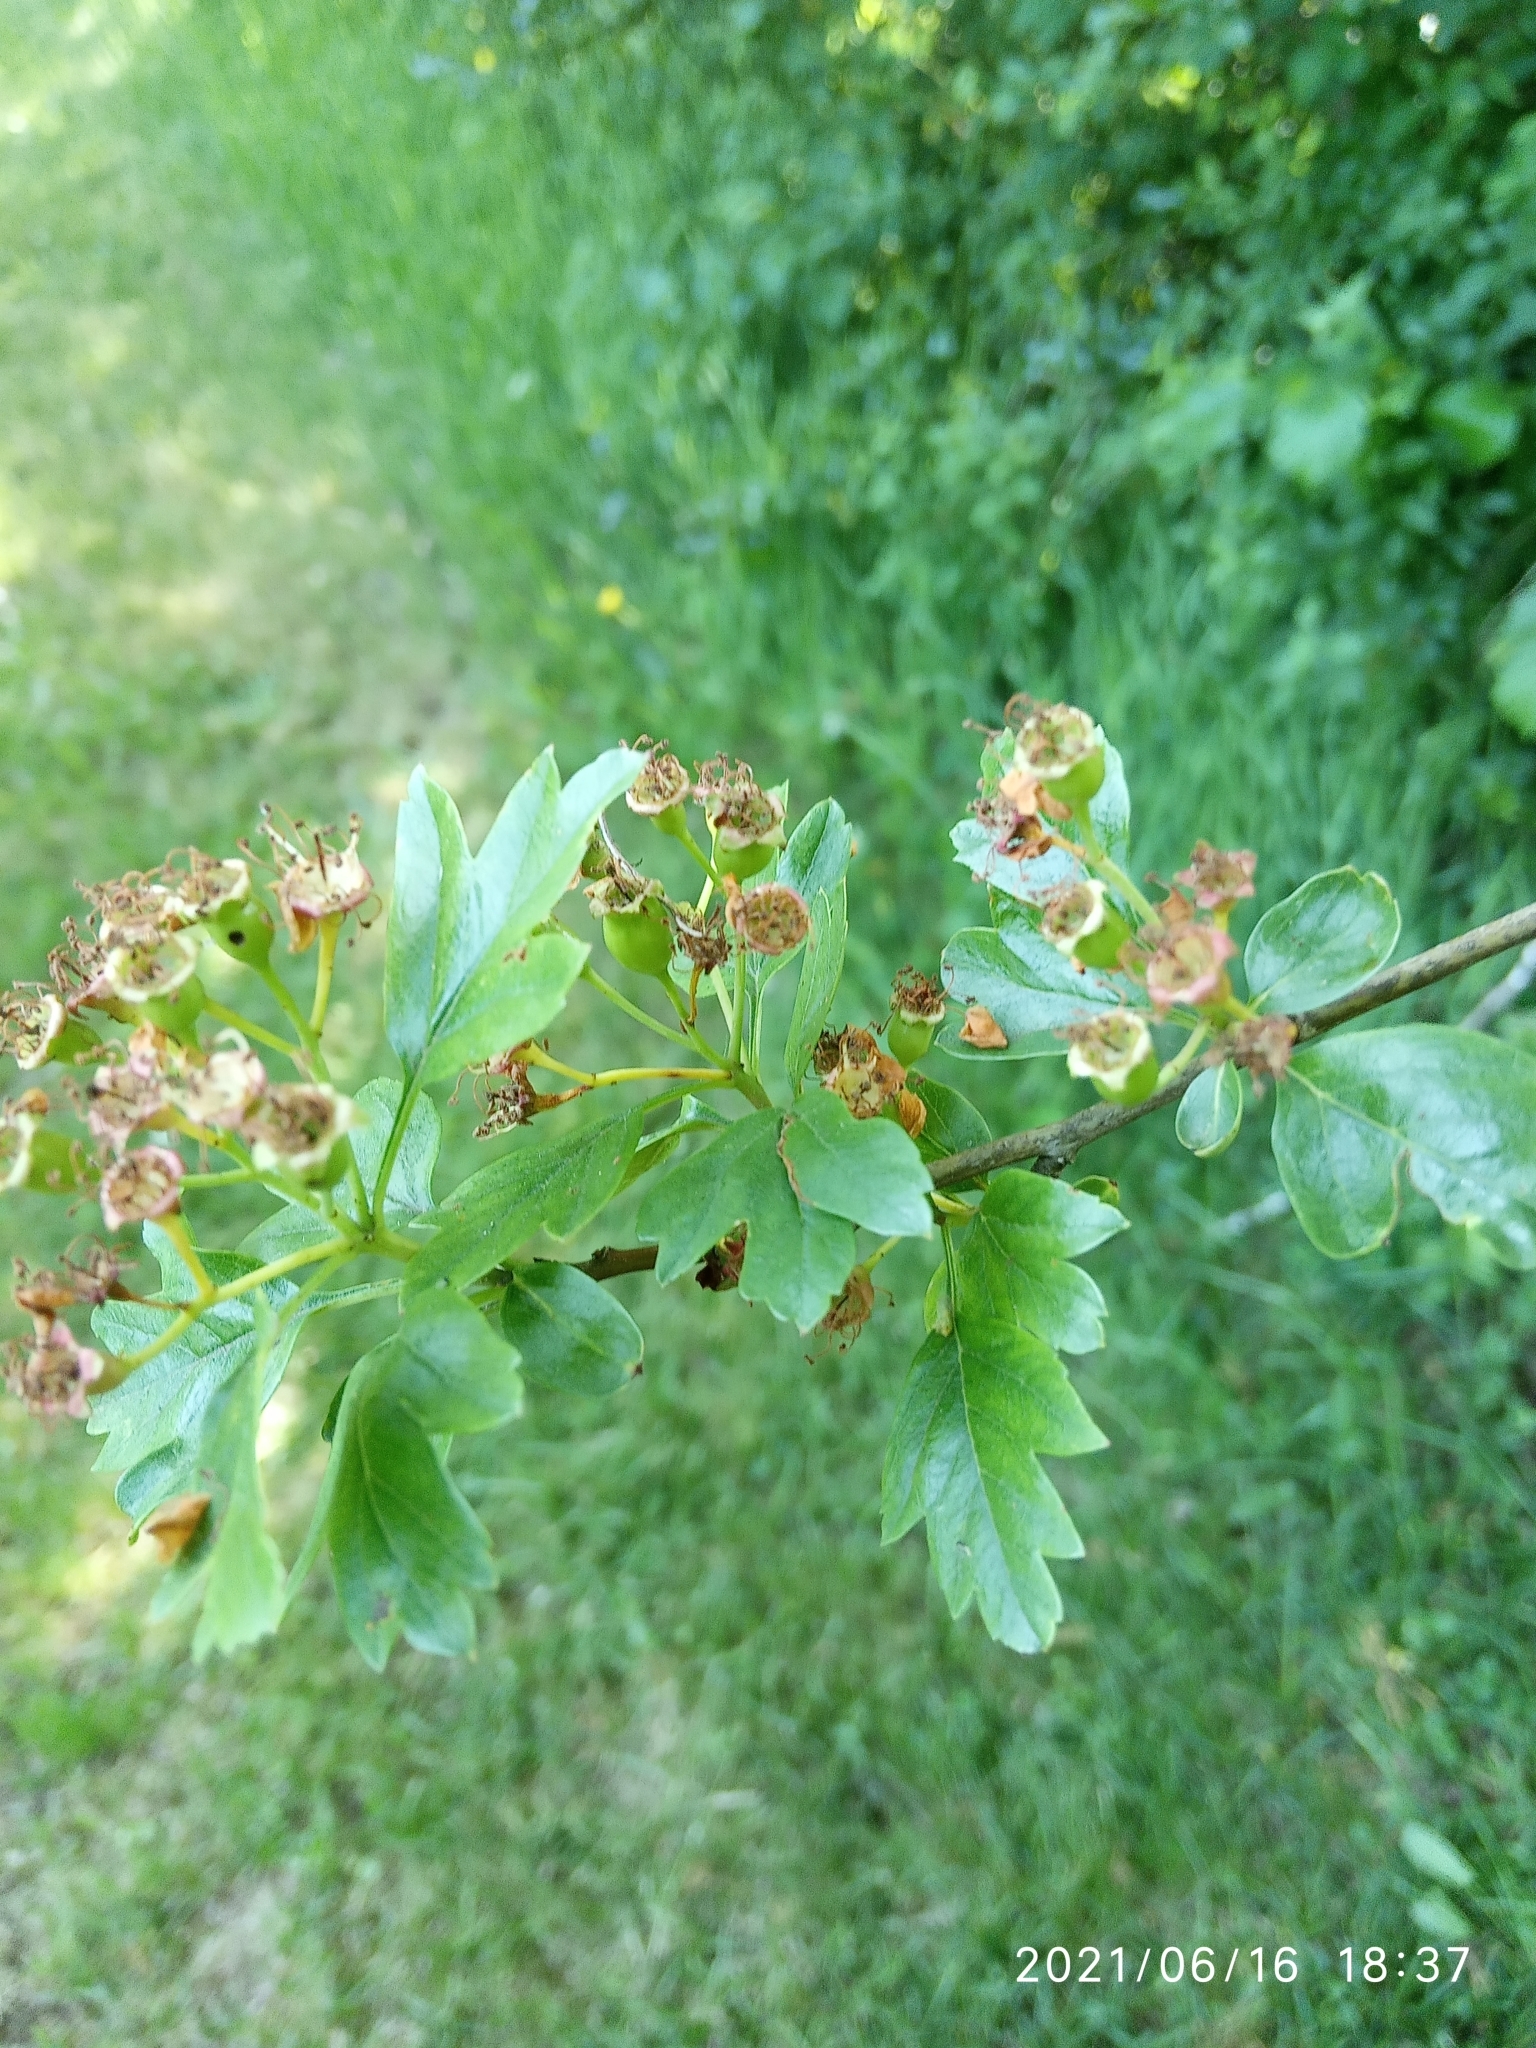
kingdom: Plantae
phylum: Tracheophyta
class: Magnoliopsida
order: Rosales
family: Rosaceae
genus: Crataegus
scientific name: Crataegus monogyna
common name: Hawthorn
